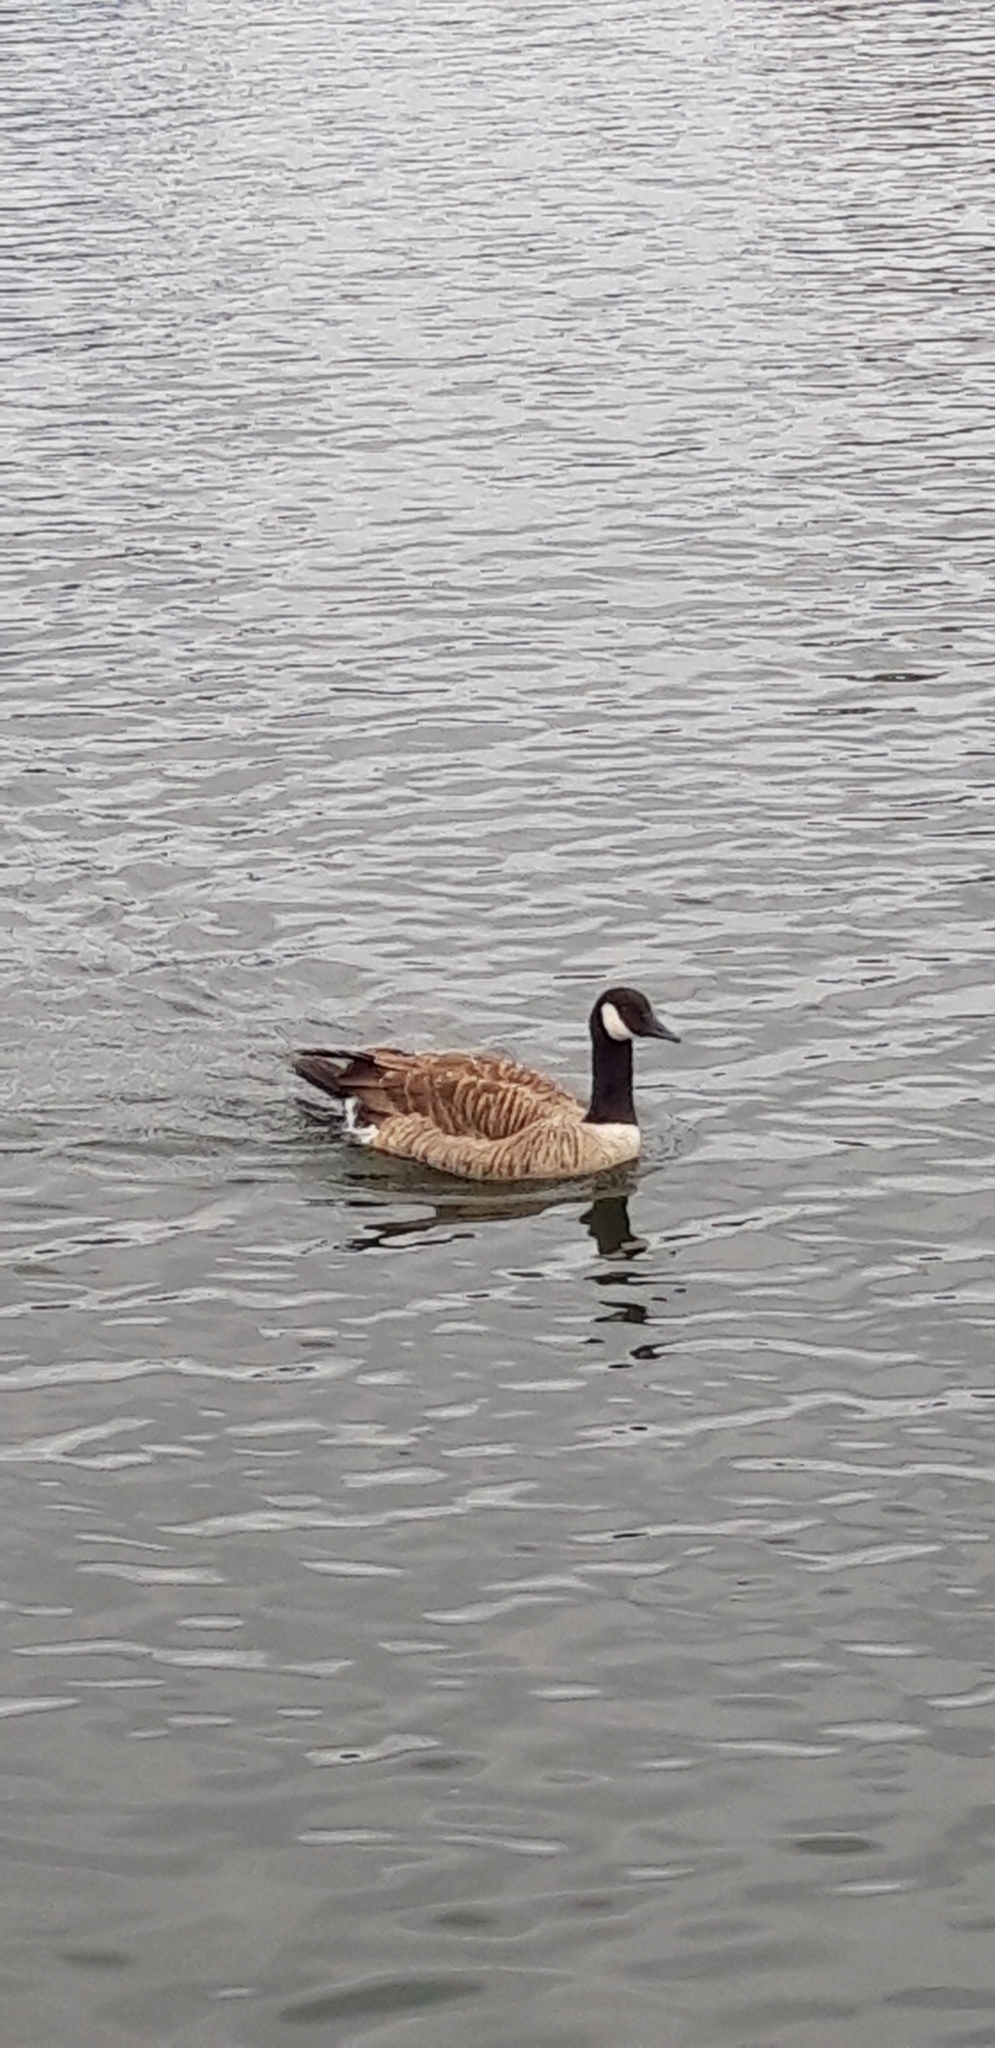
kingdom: Animalia
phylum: Chordata
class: Aves
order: Anseriformes
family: Anatidae
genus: Branta
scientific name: Branta canadensis
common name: Canada goose
